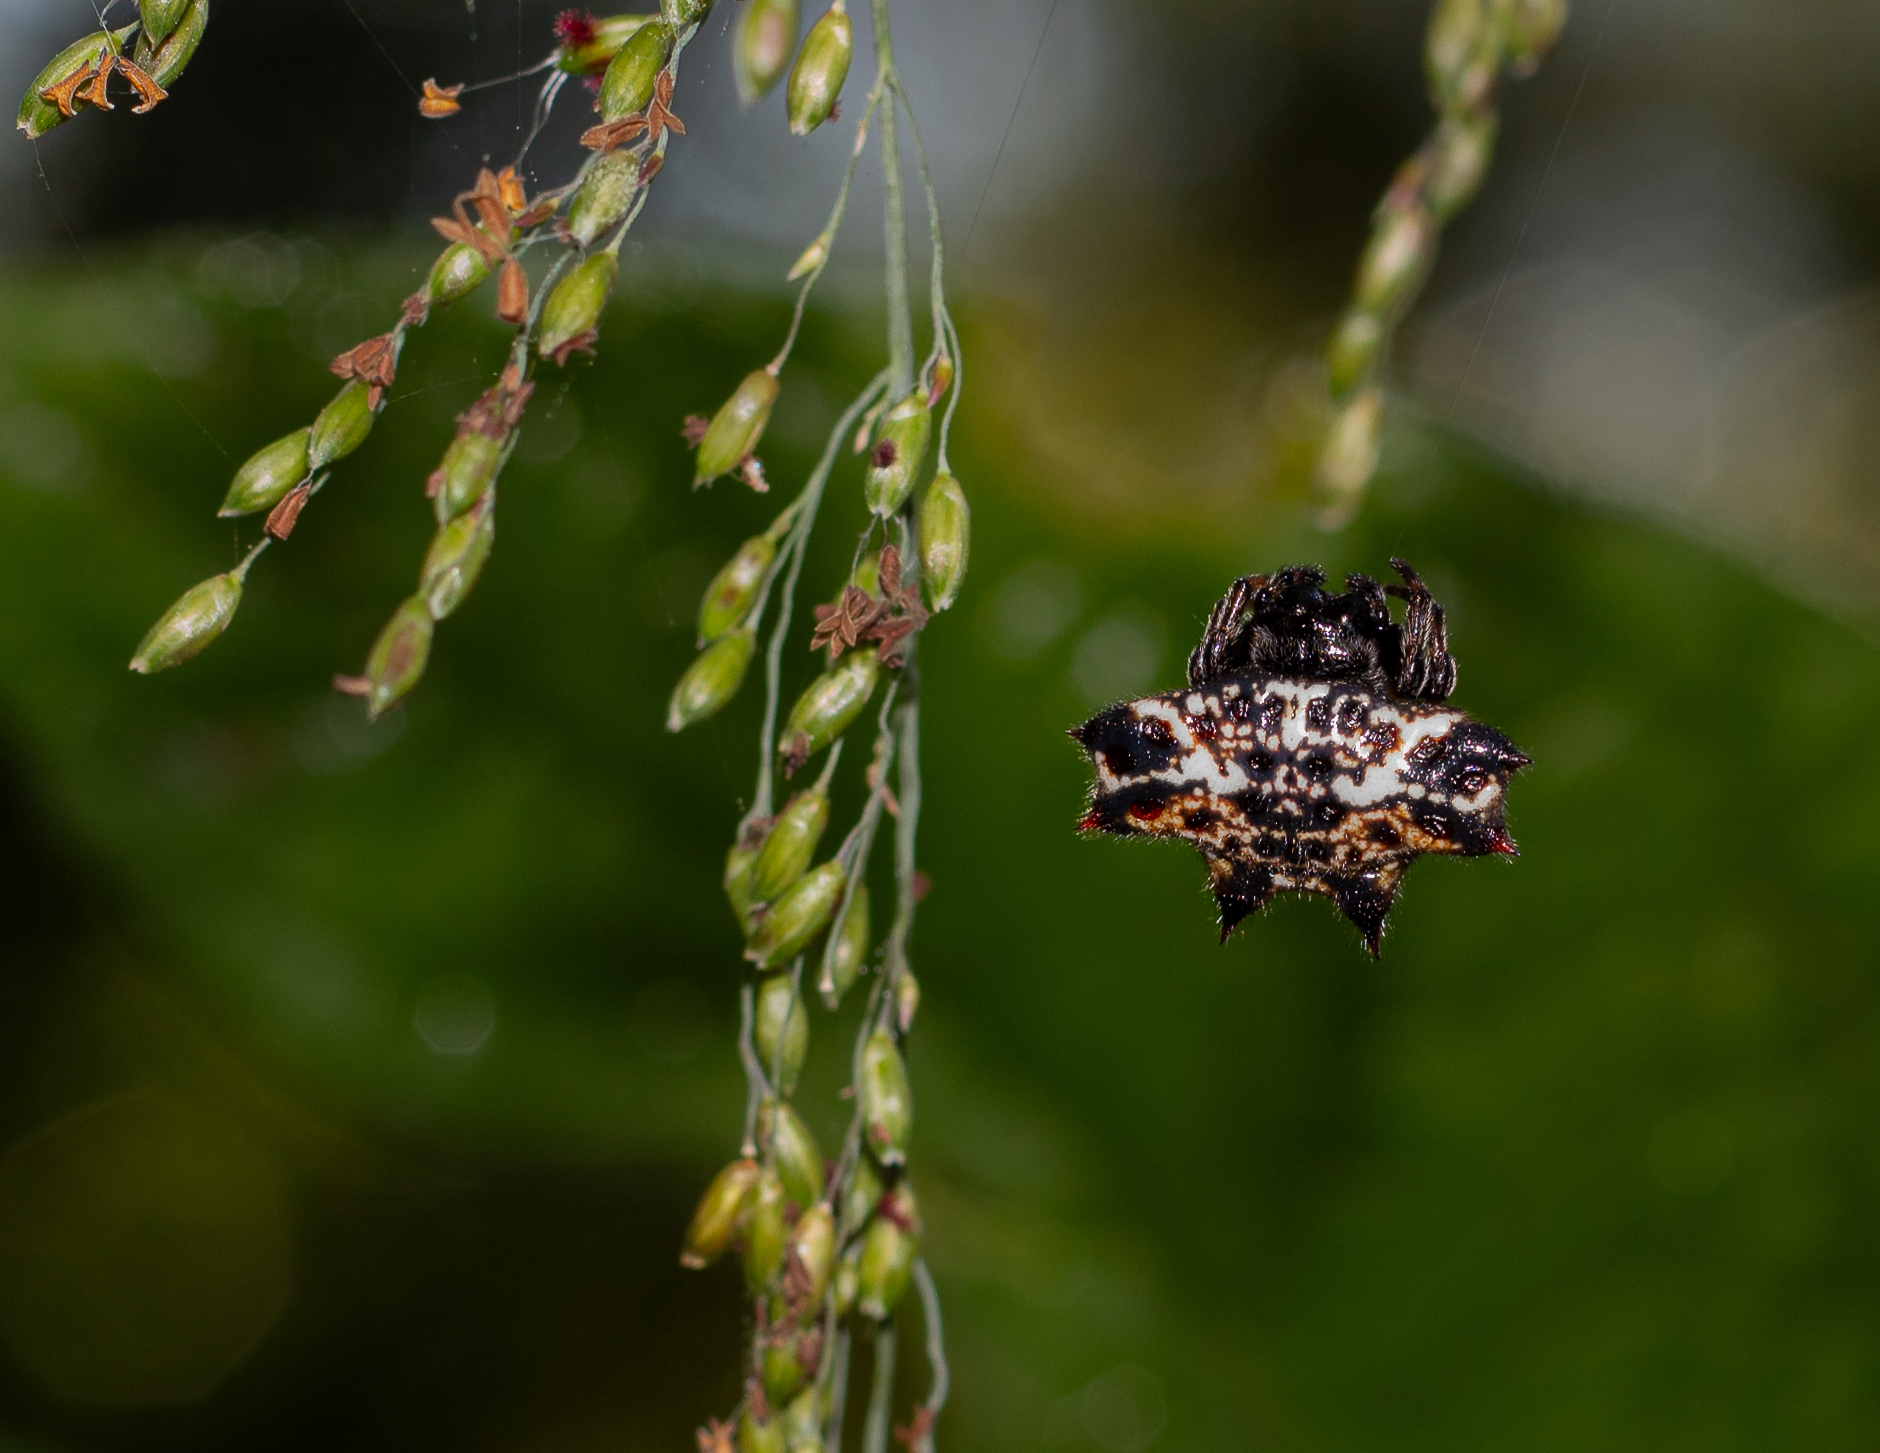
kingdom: Animalia
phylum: Arthropoda
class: Arachnida
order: Araneae
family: Araneidae
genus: Gasteracantha
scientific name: Gasteracantha cancriformis
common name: Orb weavers
